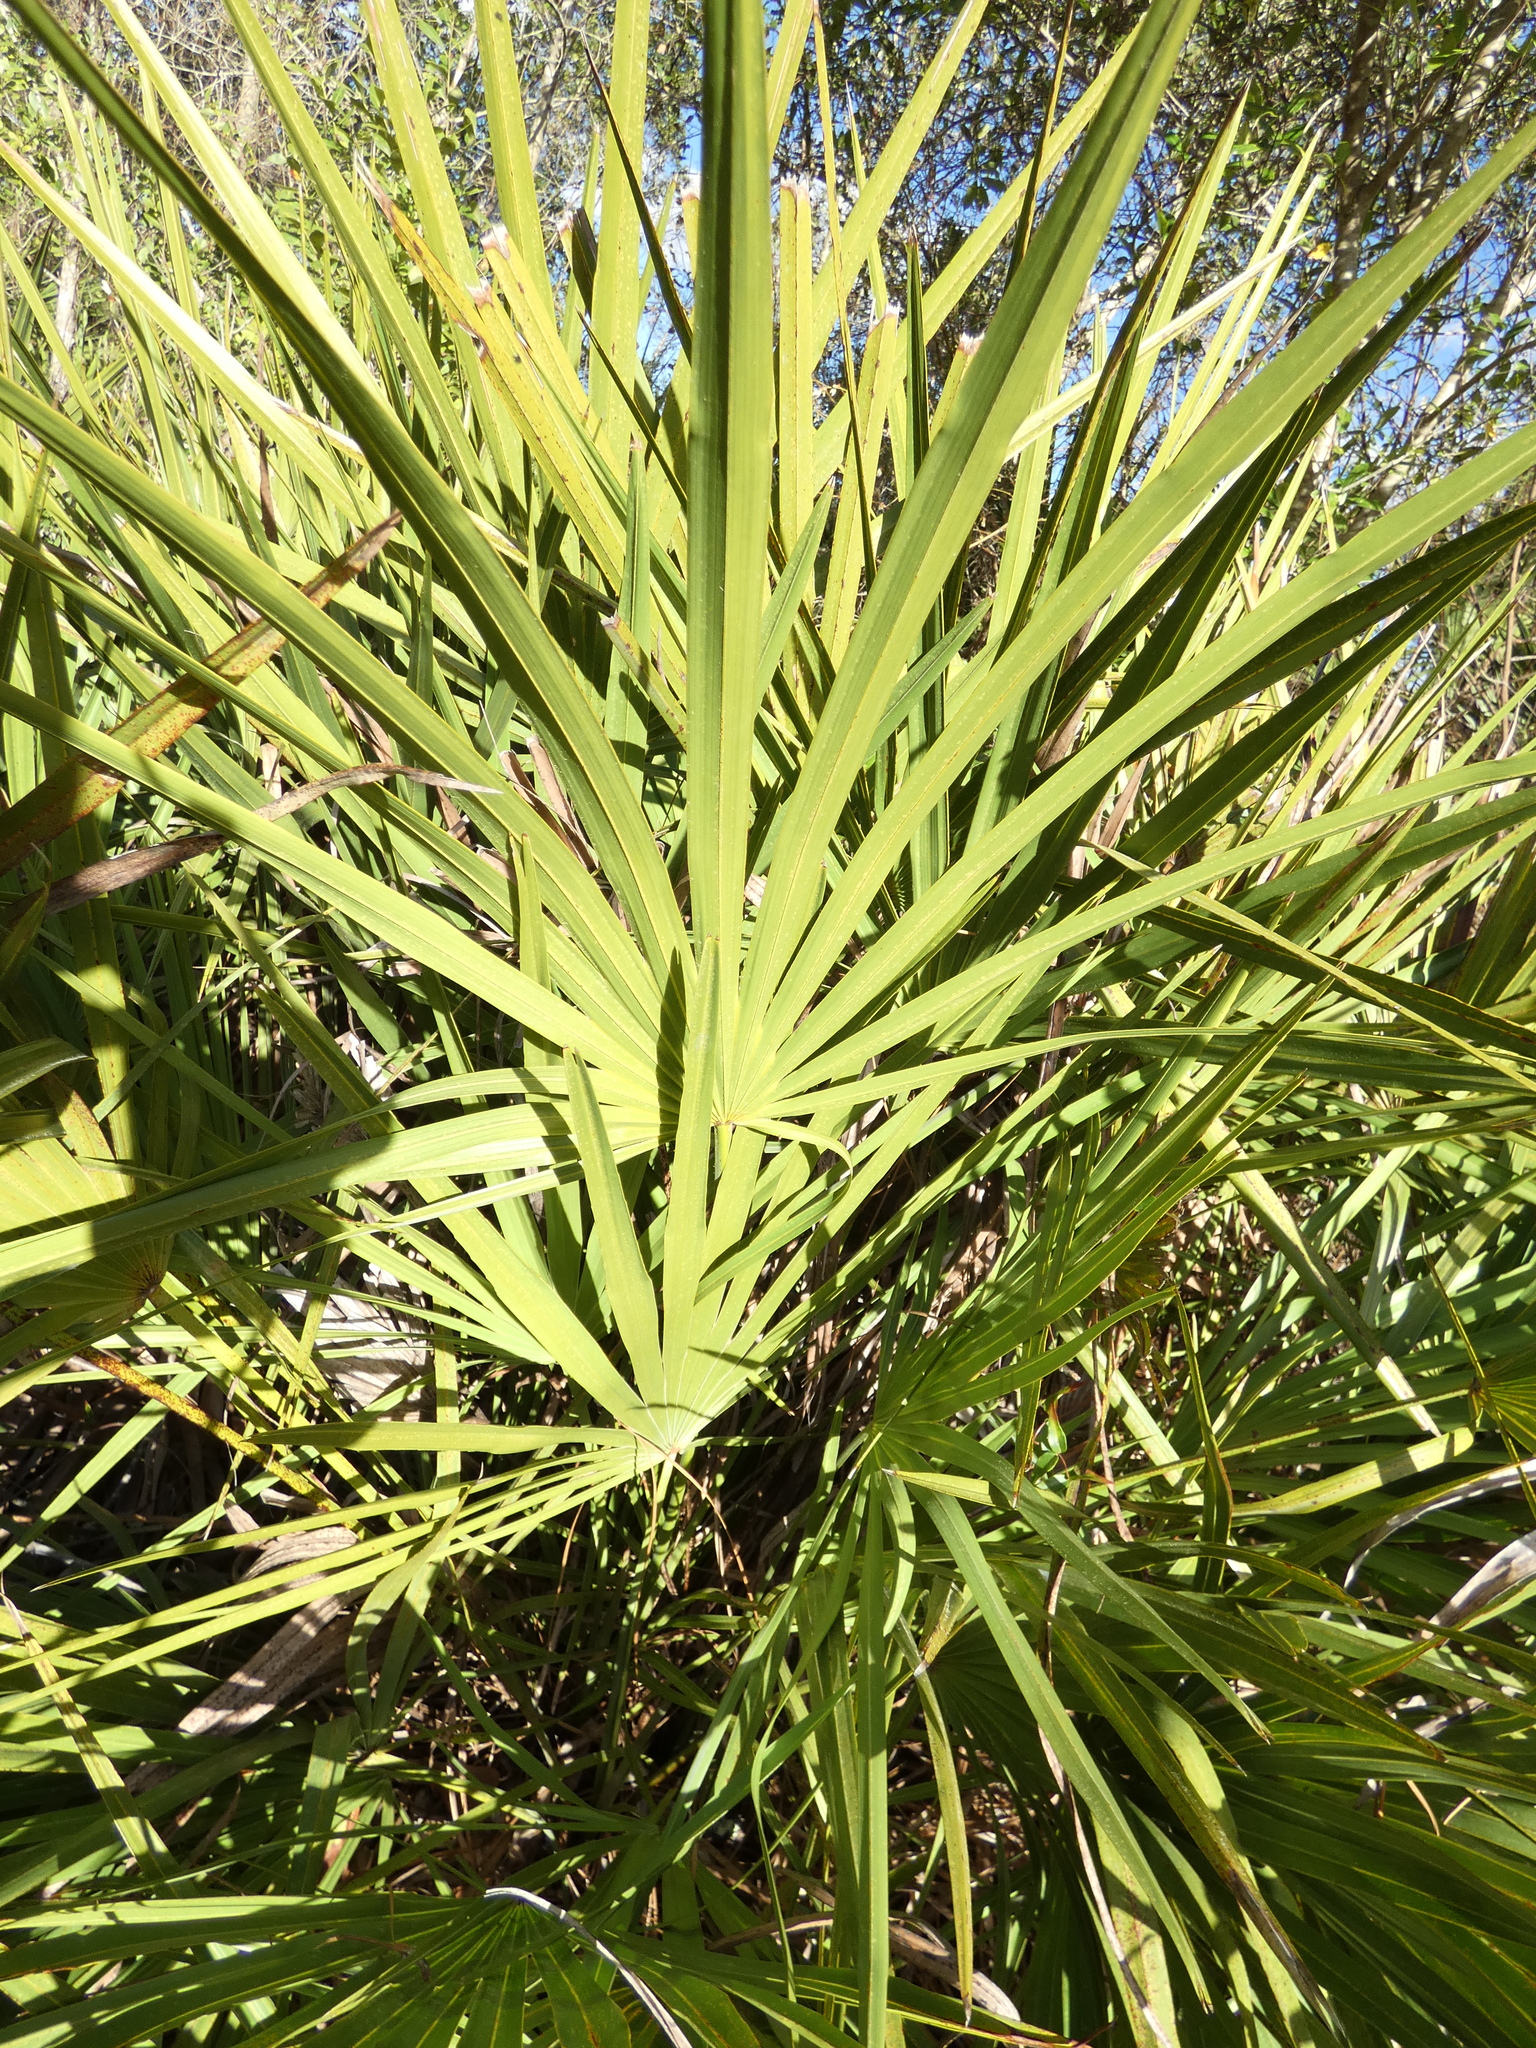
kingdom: Plantae
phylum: Tracheophyta
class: Liliopsida
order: Arecales
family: Arecaceae
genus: Serenoa
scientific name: Serenoa repens
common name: Saw-palmetto
